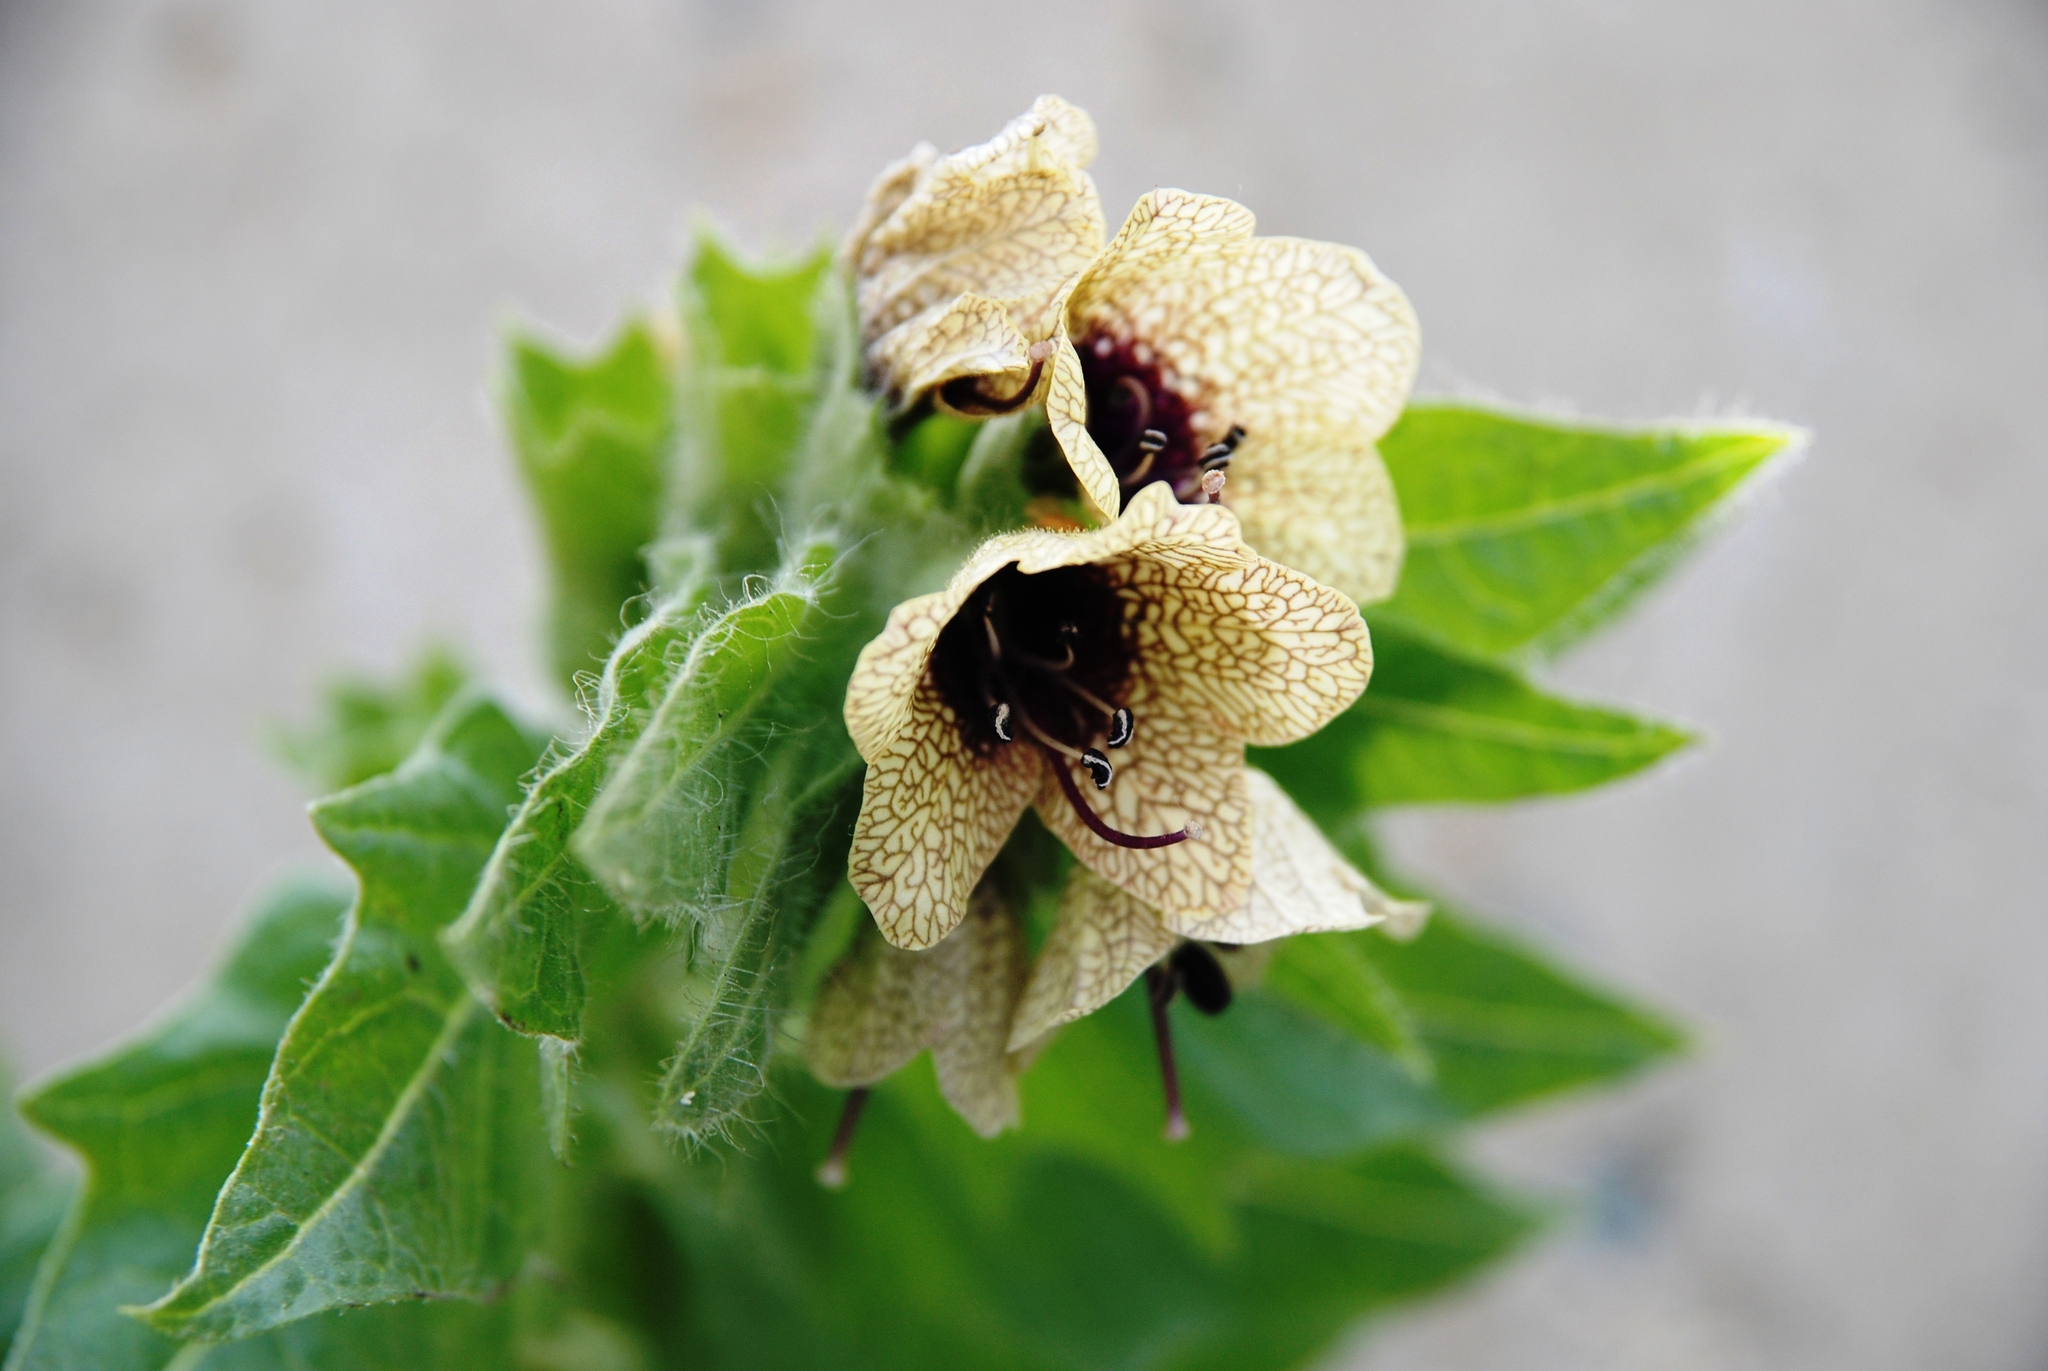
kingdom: Plantae
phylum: Tracheophyta
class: Magnoliopsida
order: Solanales
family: Solanaceae
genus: Hyoscyamus
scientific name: Hyoscyamus niger
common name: Henbane
